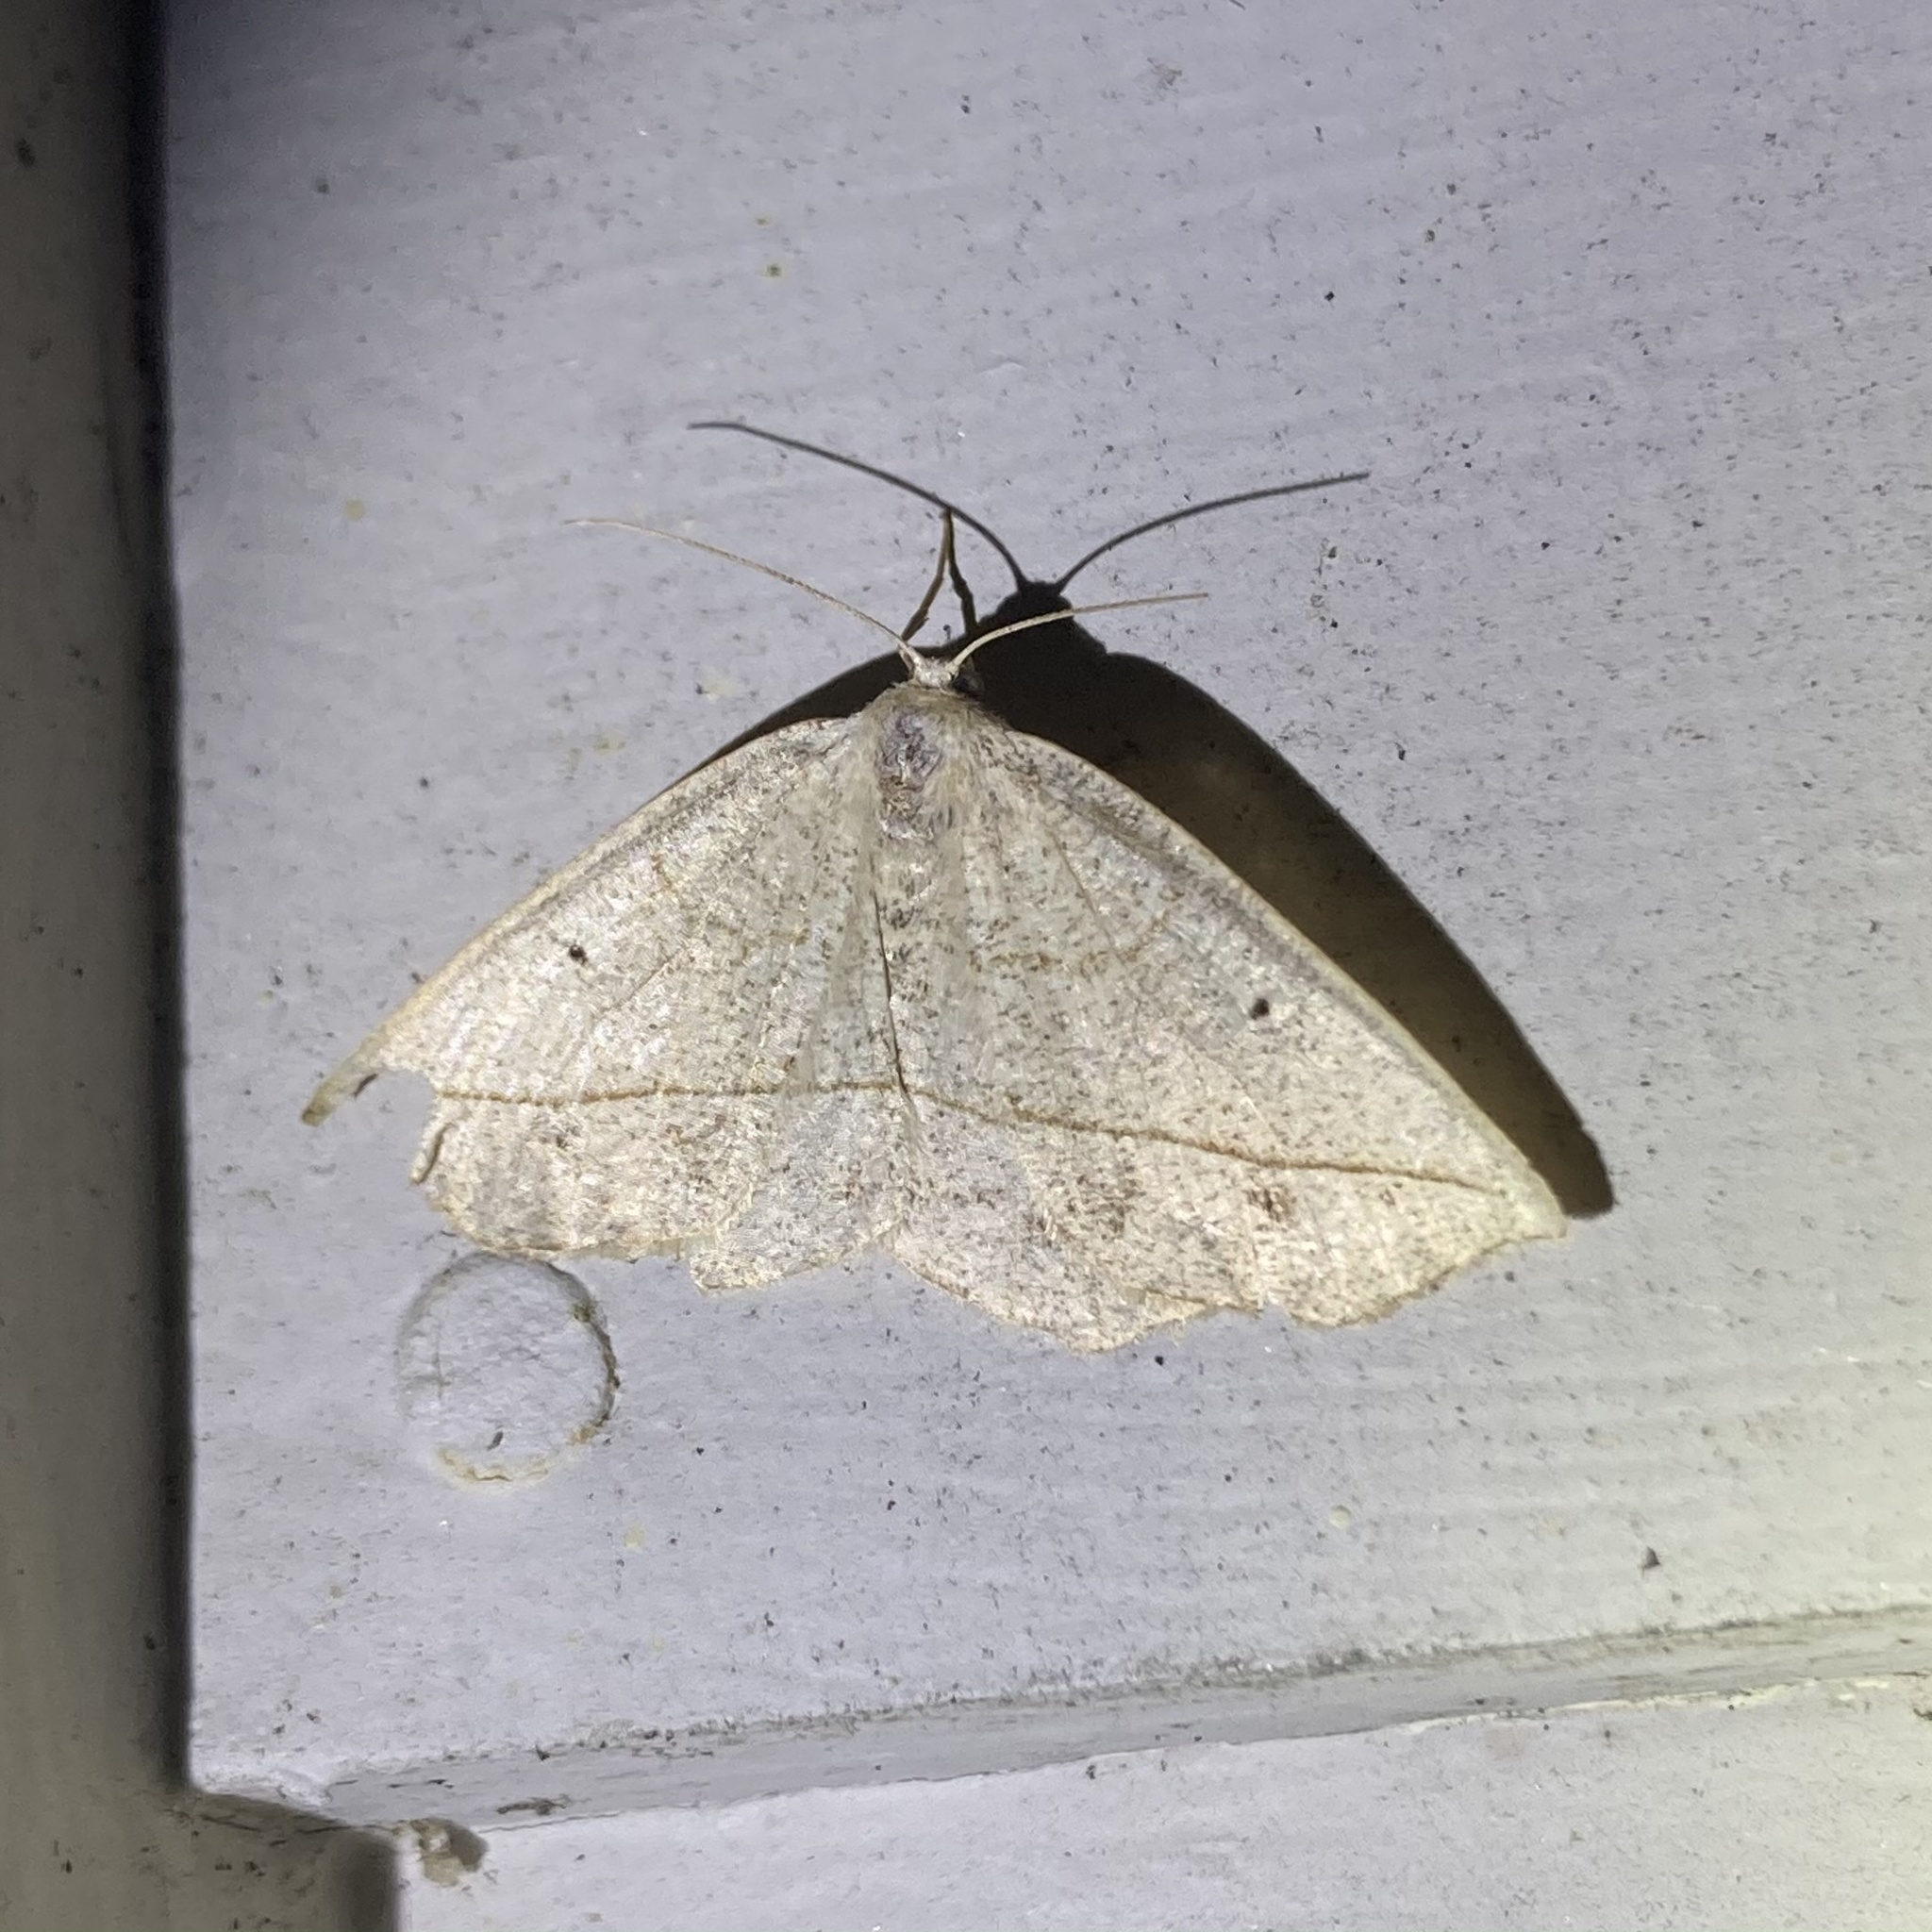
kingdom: Animalia
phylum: Arthropoda
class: Insecta
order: Lepidoptera
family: Geometridae
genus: Eusarca
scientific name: Eusarca confusaria
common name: Confused eusarca
